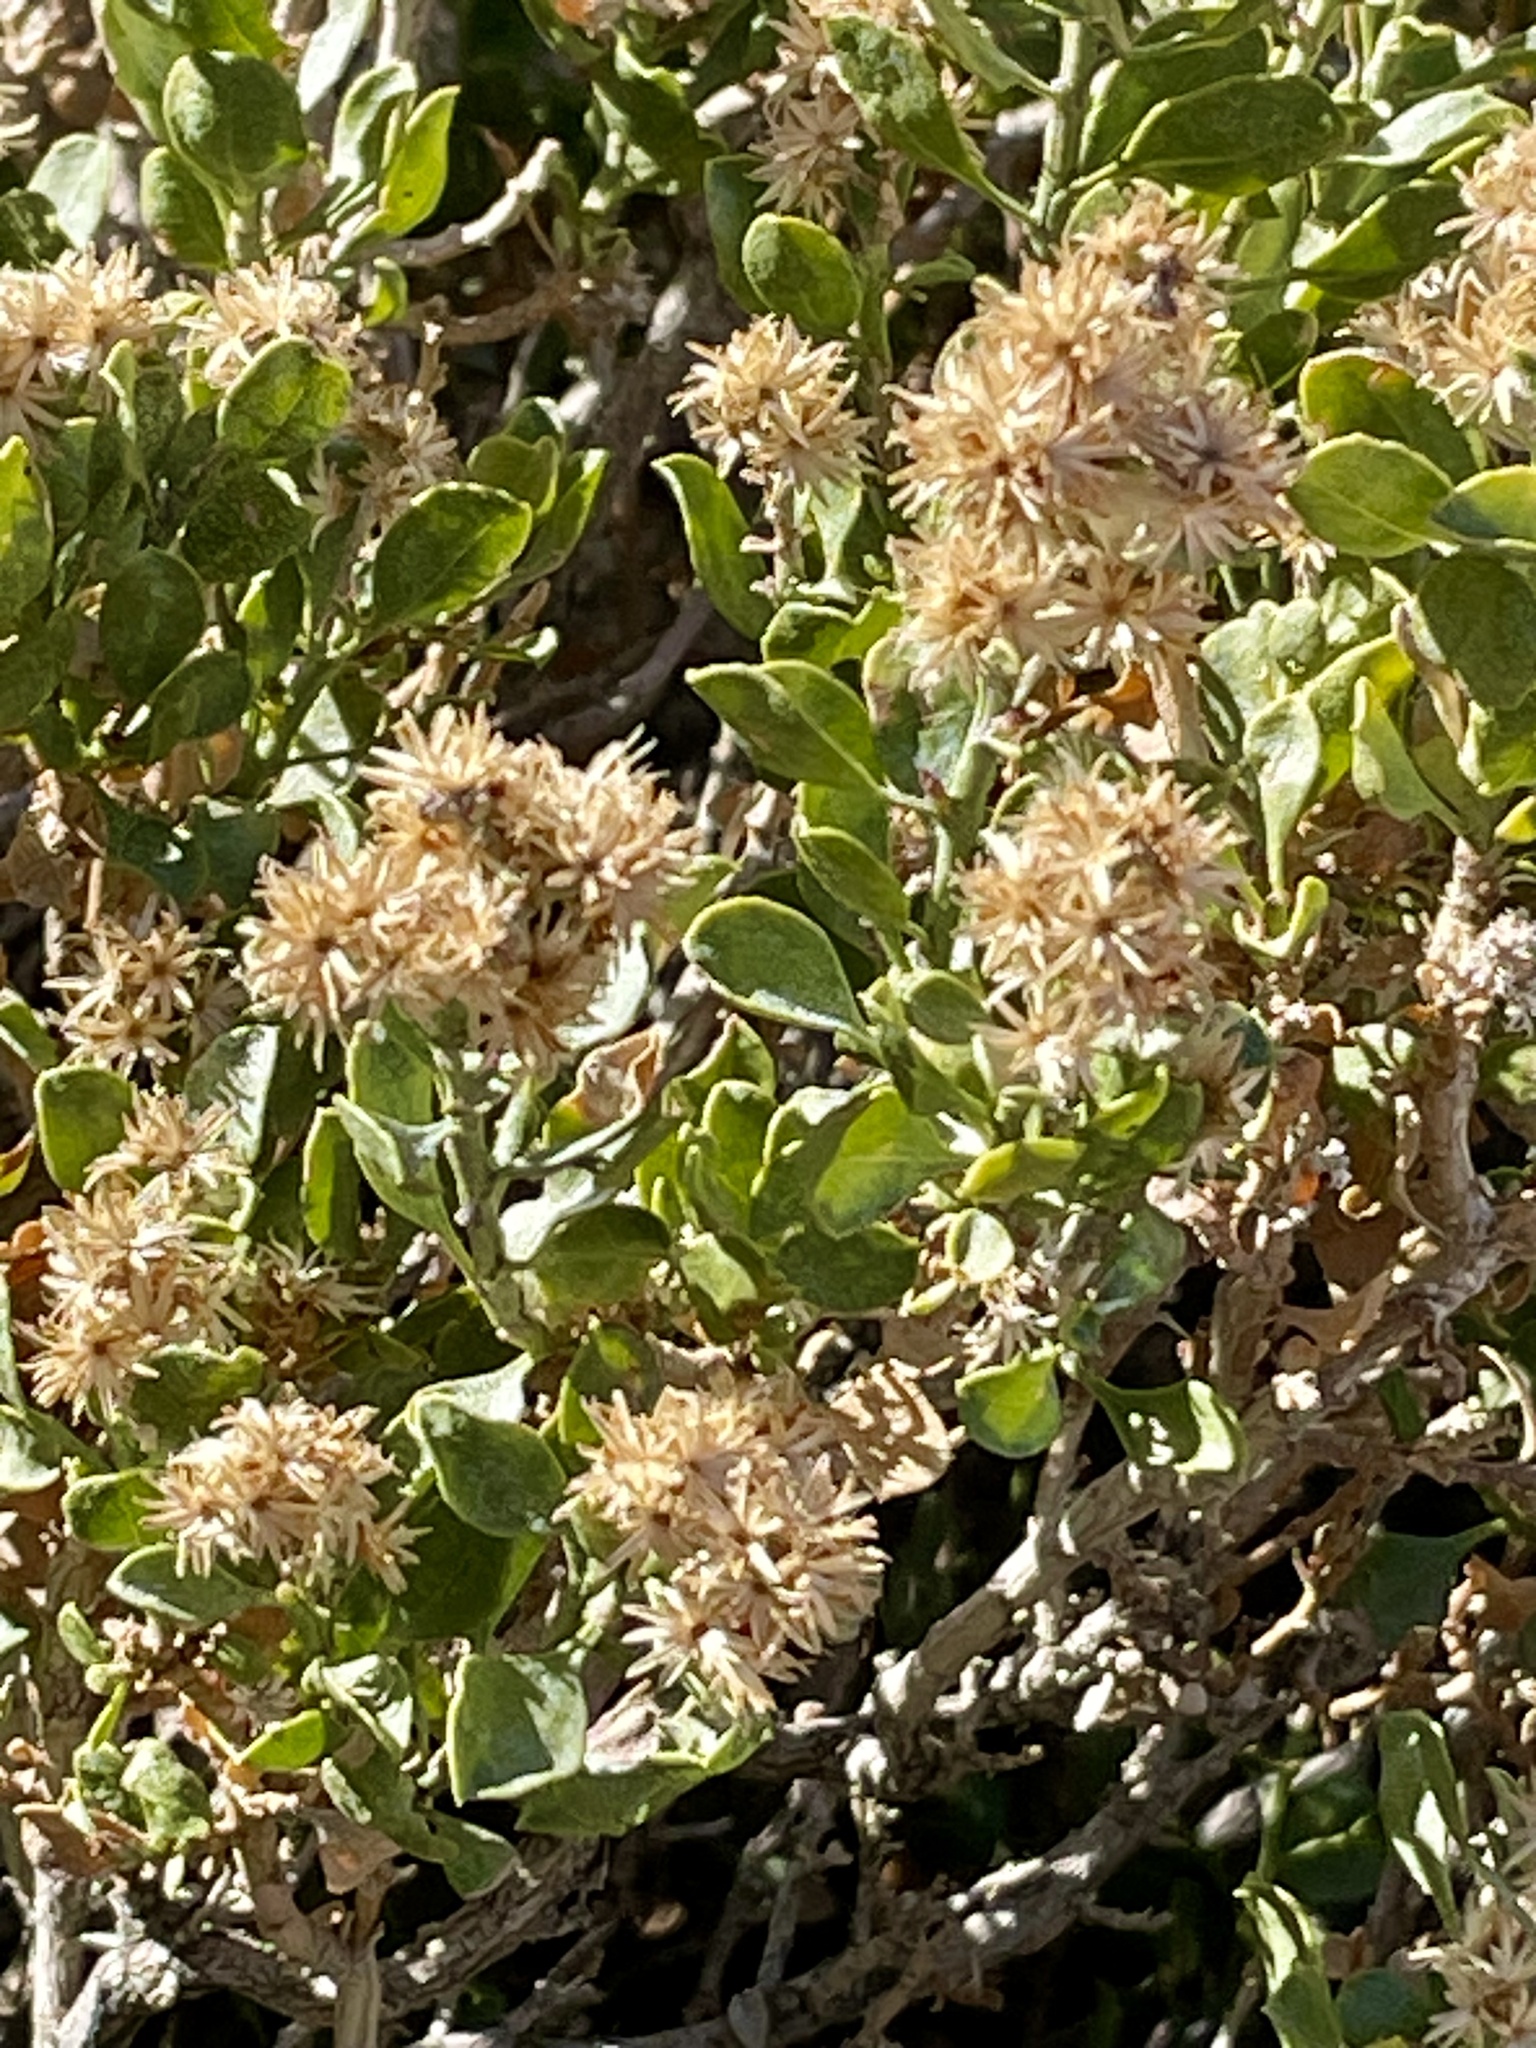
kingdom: Plantae
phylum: Tracheophyta
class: Magnoliopsida
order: Asterales
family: Asteraceae
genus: Ericameria
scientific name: Ericameria cuneata
